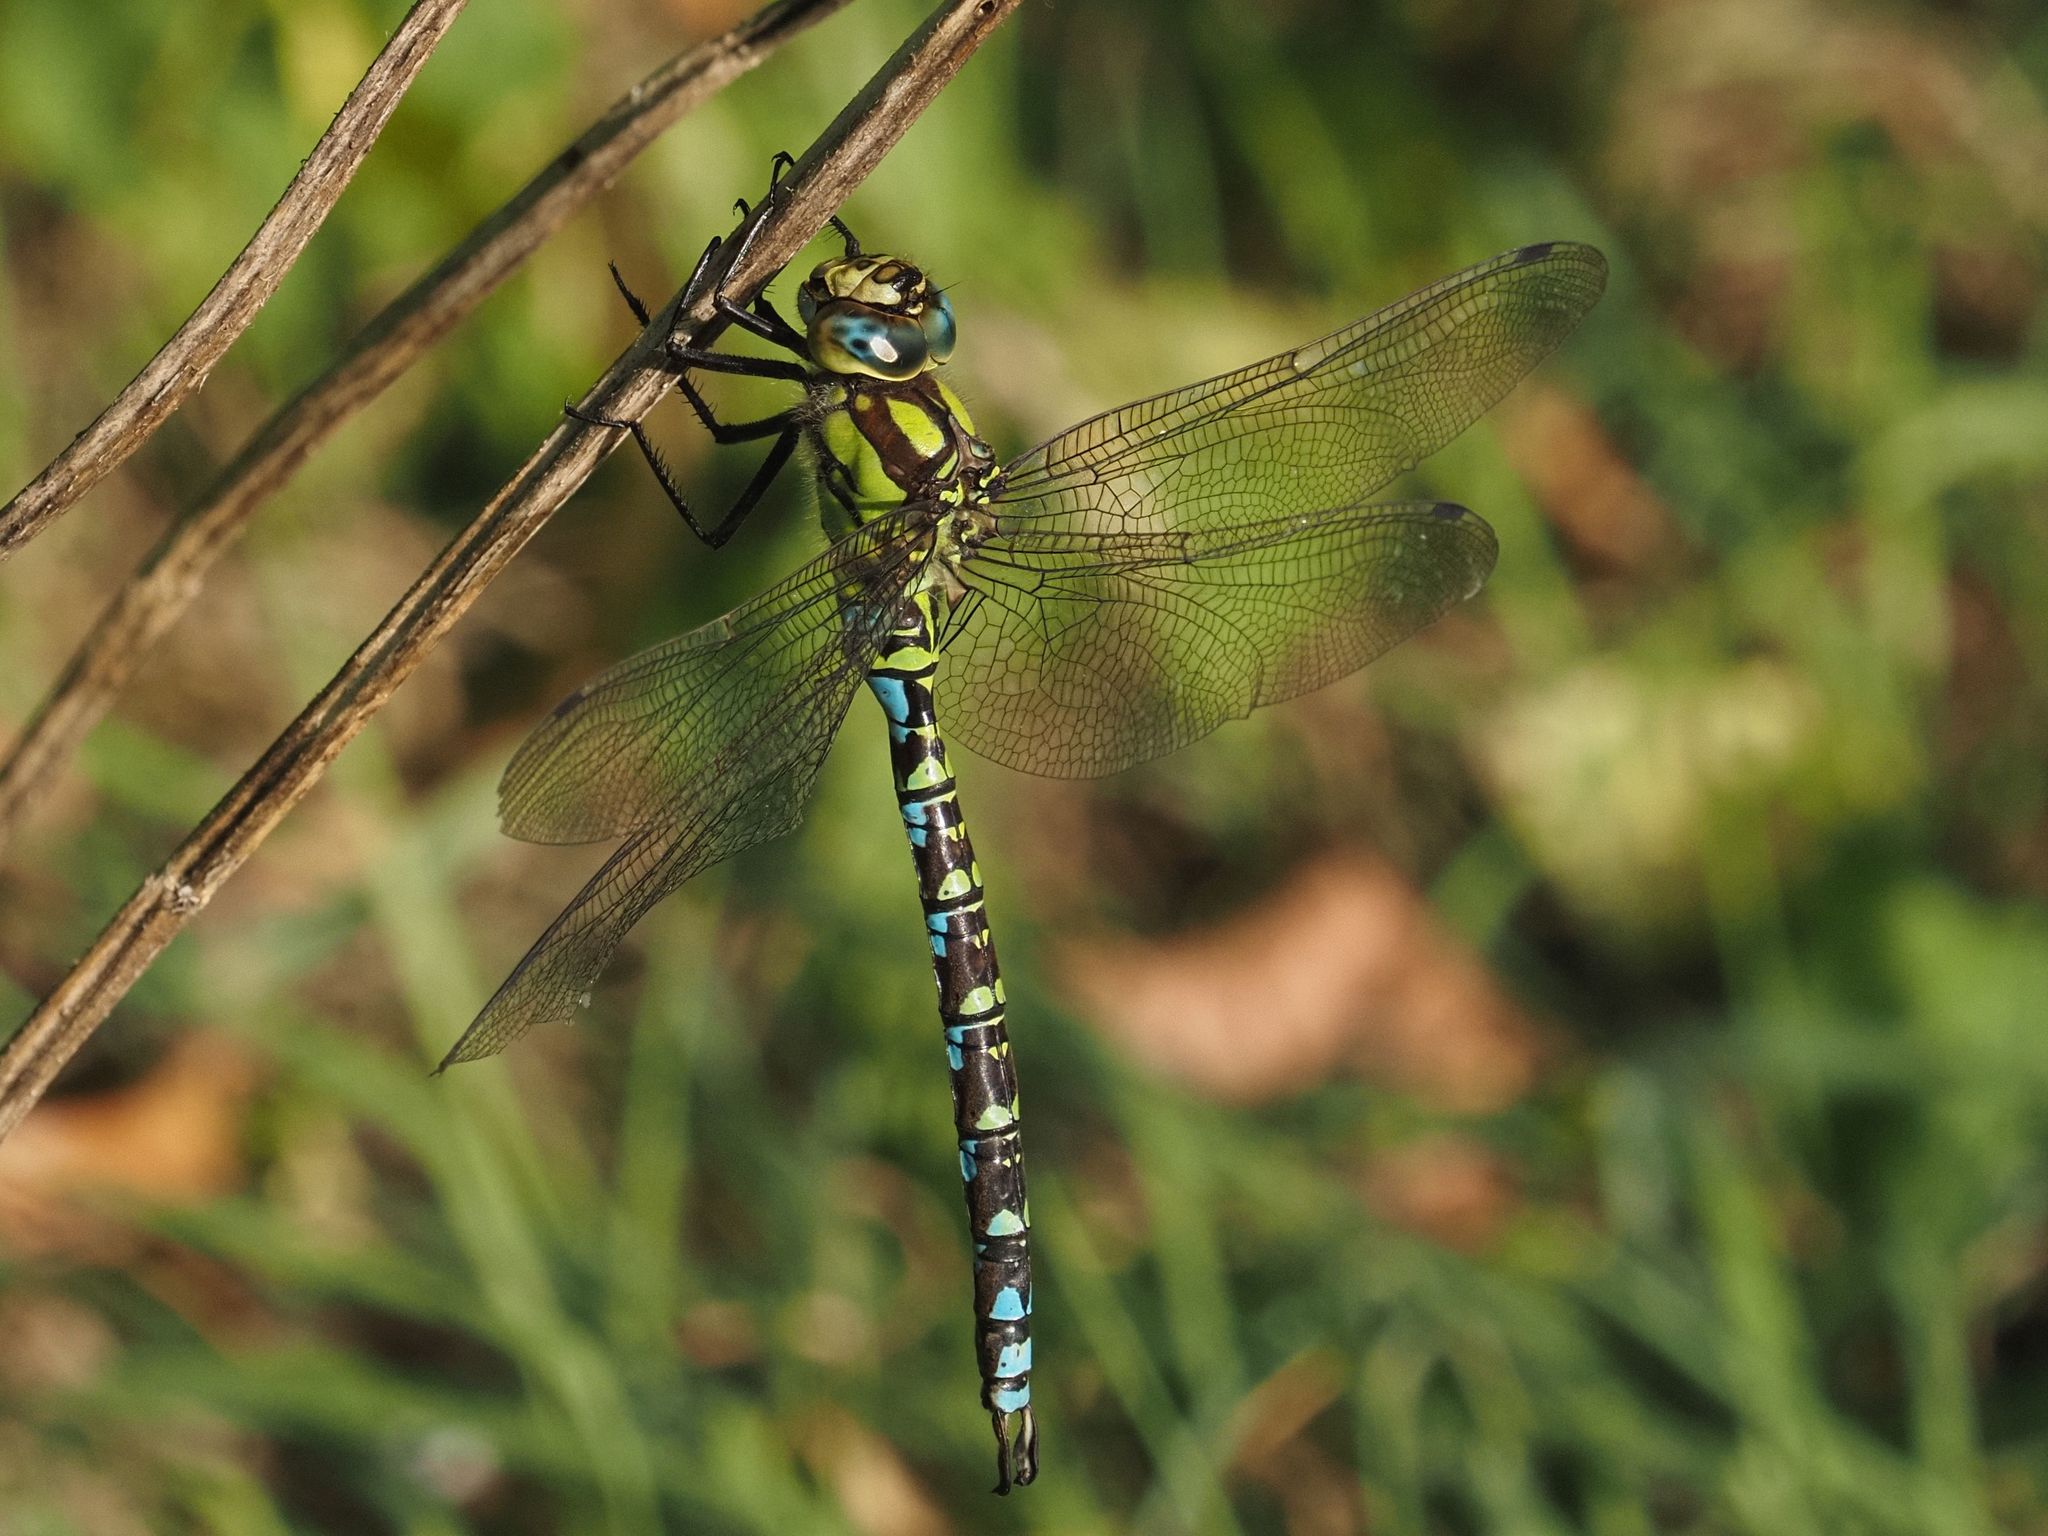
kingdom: Animalia
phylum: Arthropoda
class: Insecta
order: Odonata
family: Aeshnidae
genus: Aeshna
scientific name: Aeshna cyanea
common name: Southern hawker
